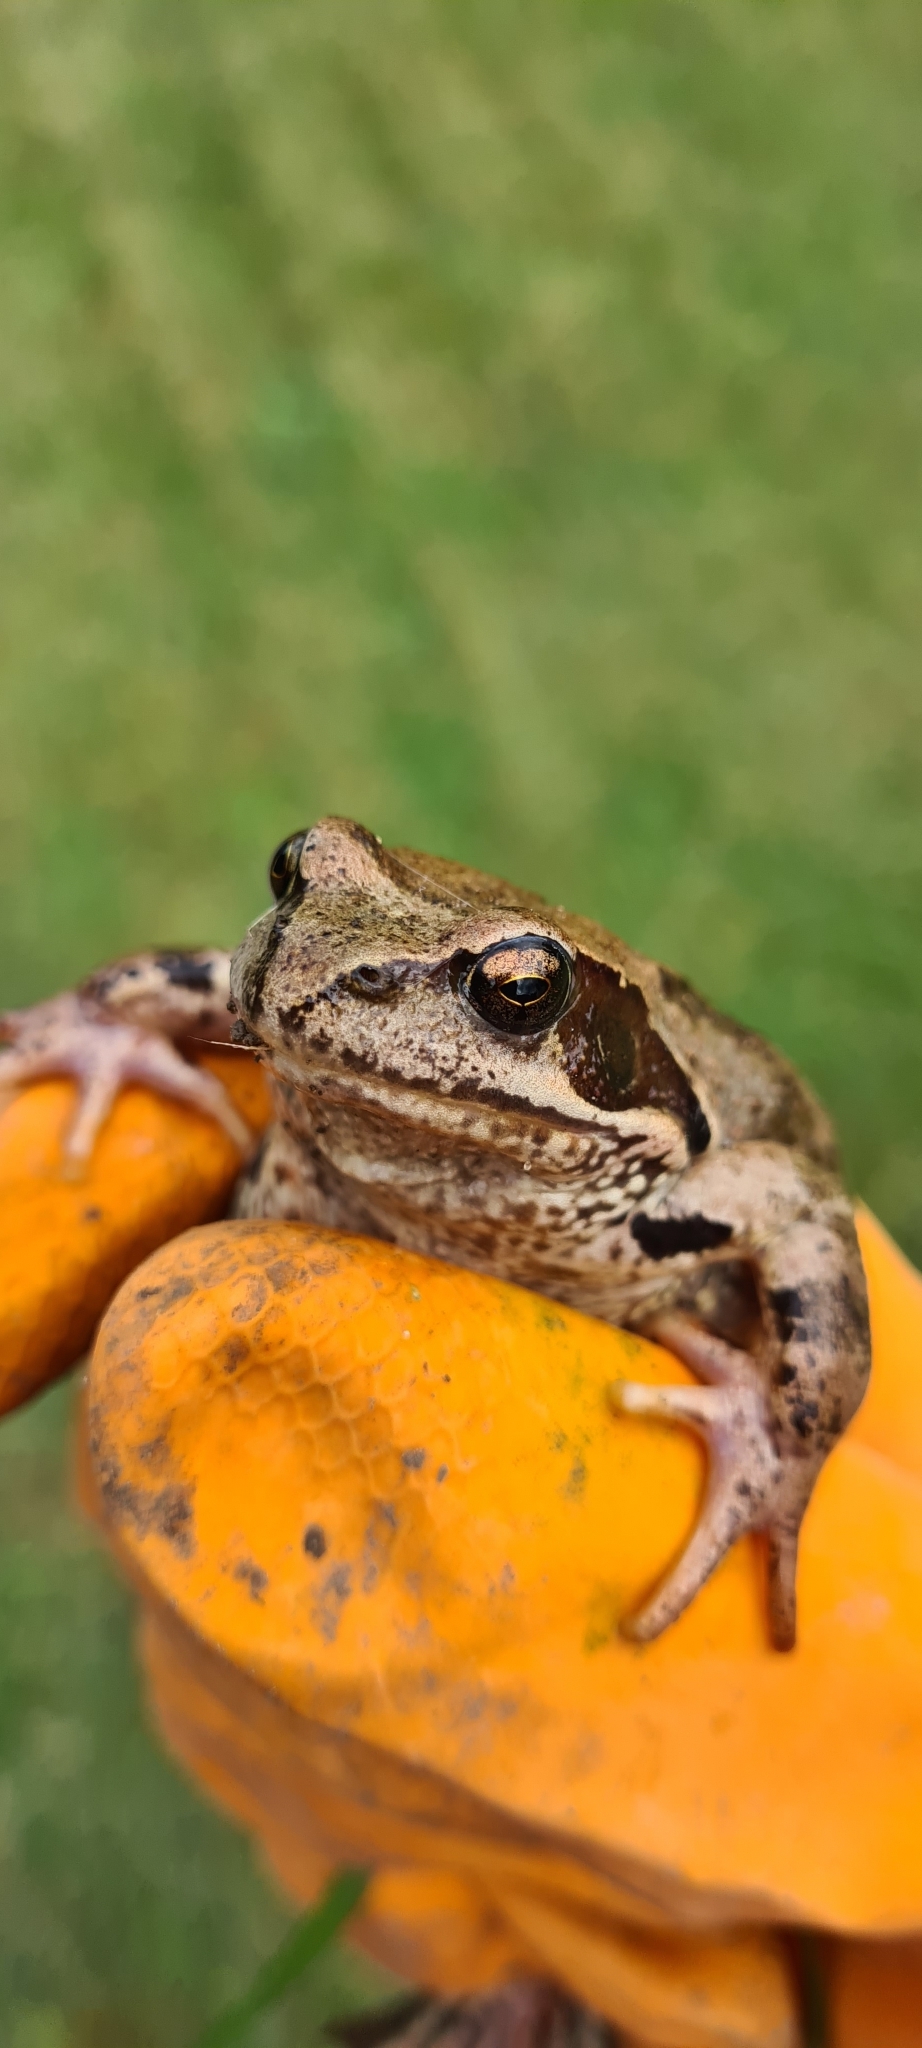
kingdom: Animalia
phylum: Chordata
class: Amphibia
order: Anura
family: Ranidae
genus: Rana
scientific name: Rana temporaria
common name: Common frog
